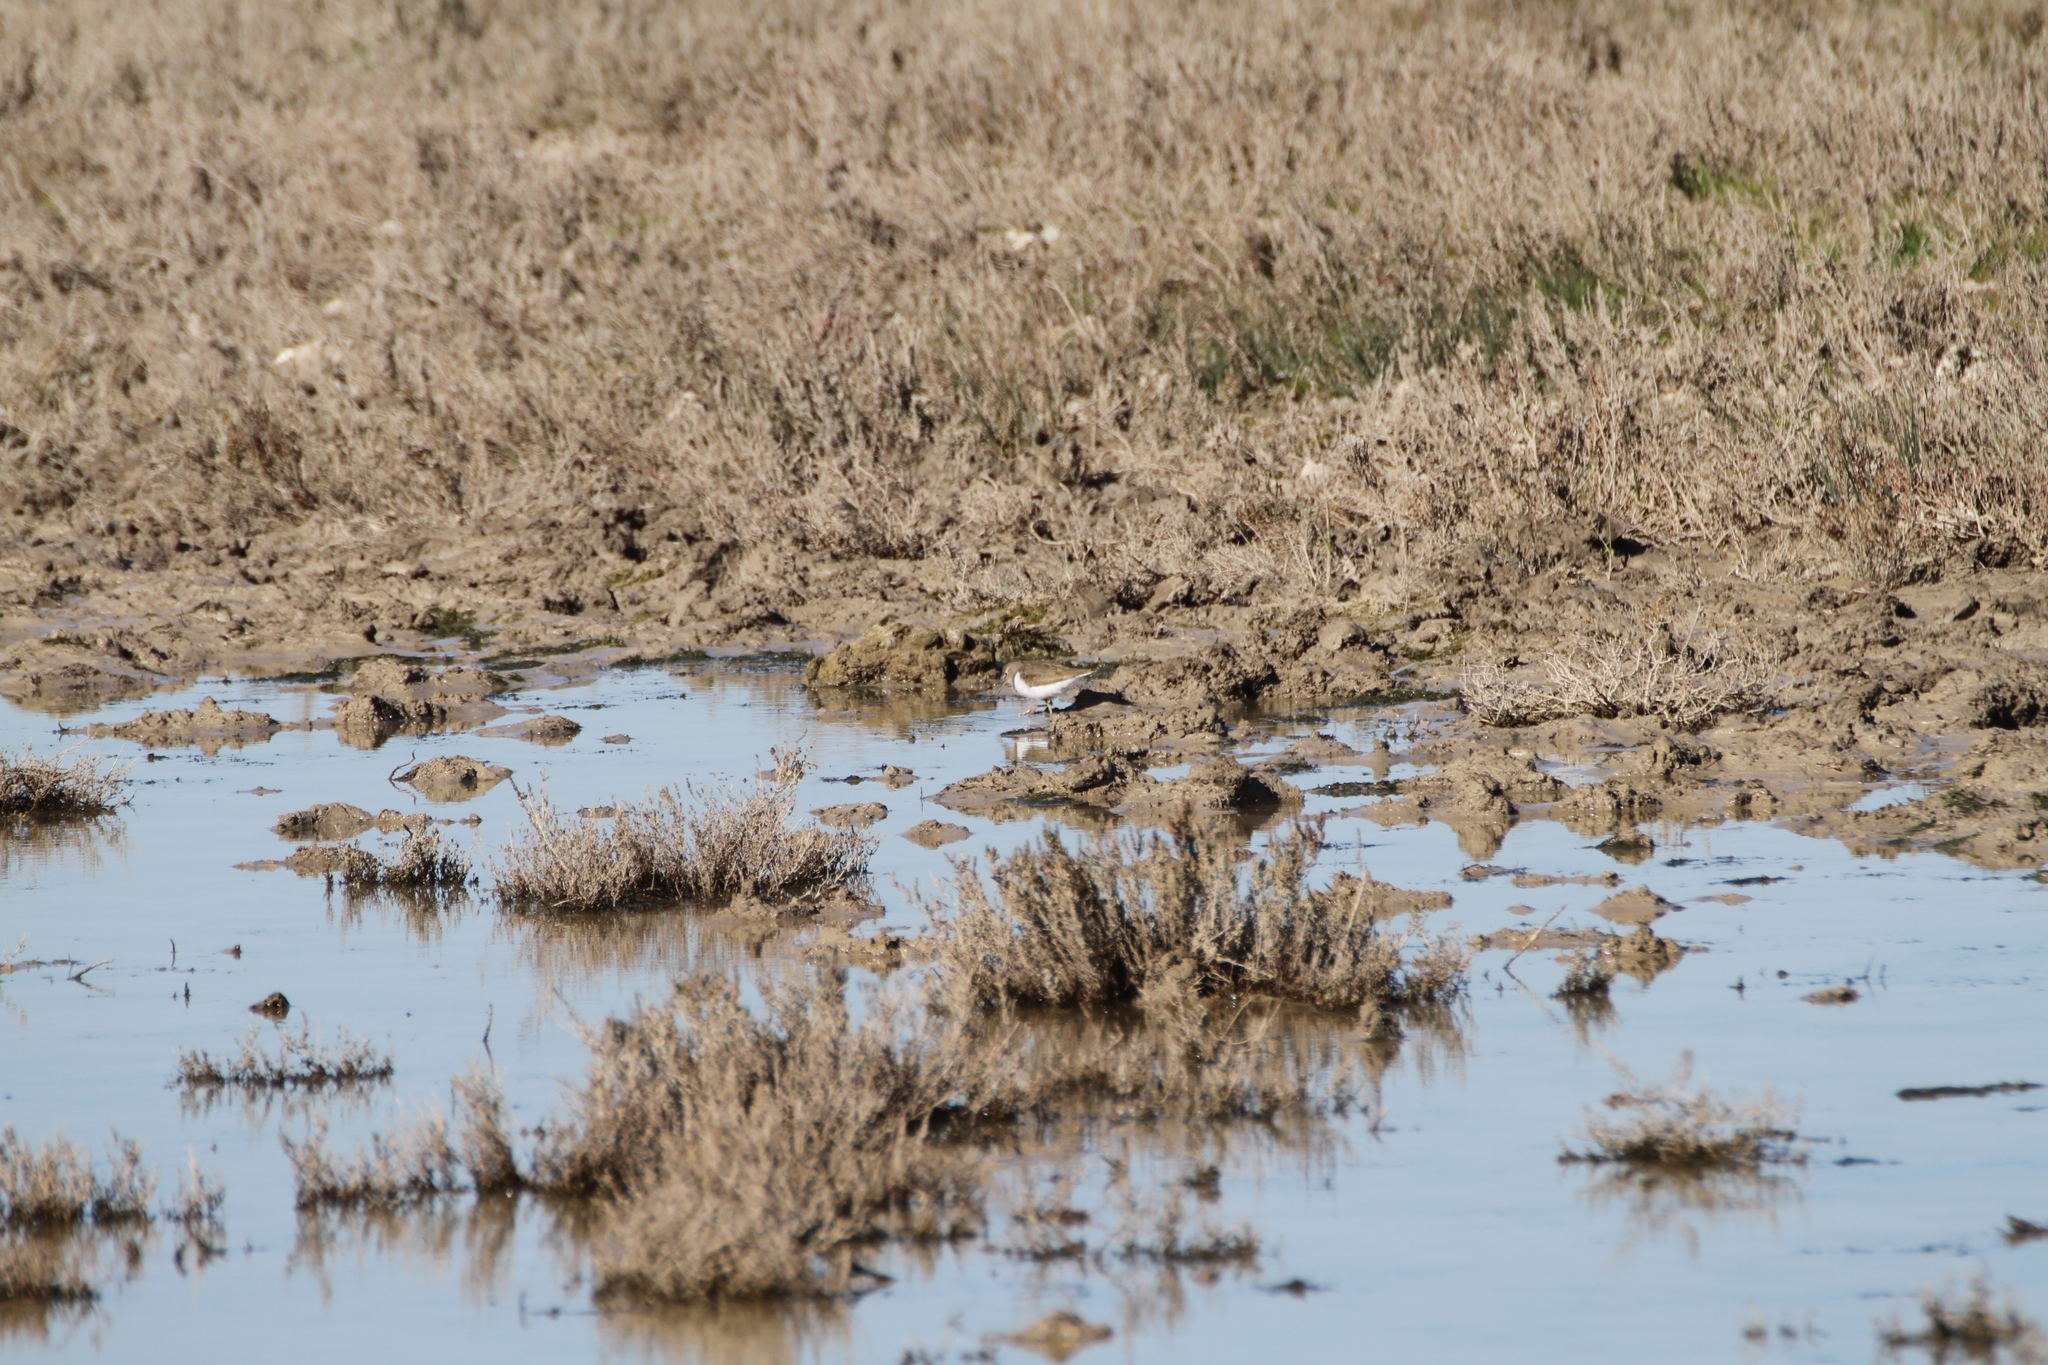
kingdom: Animalia
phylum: Chordata
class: Aves
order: Charadriiformes
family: Scolopacidae
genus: Actitis
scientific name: Actitis hypoleucos
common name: Common sandpiper
